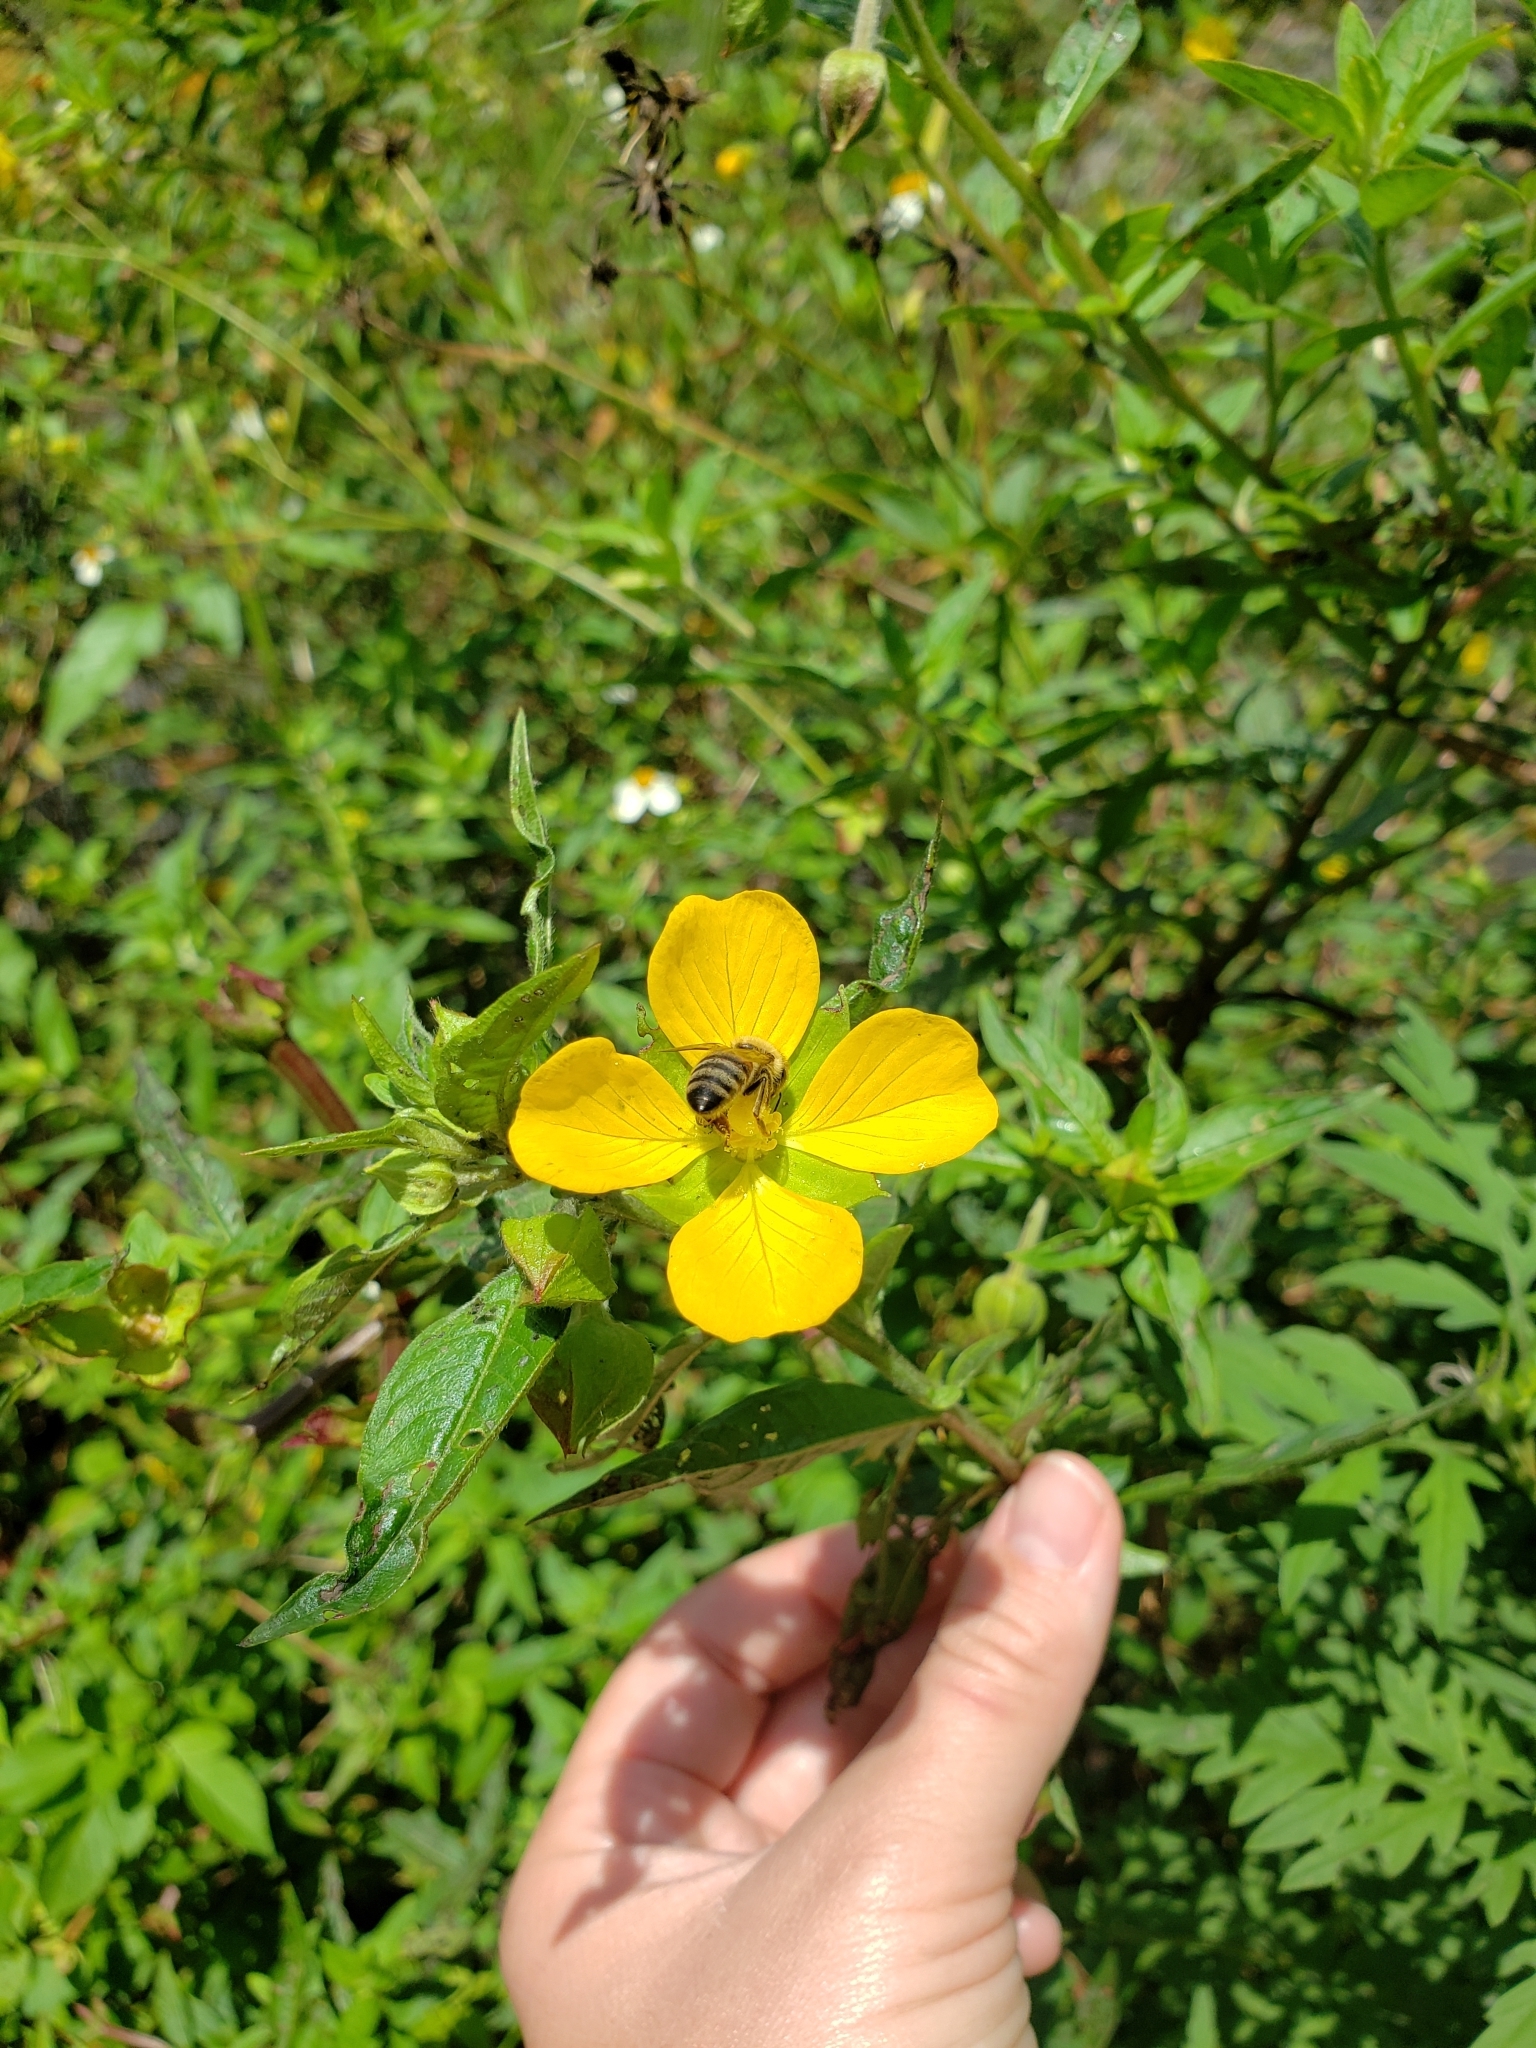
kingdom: Plantae
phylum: Tracheophyta
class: Magnoliopsida
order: Myrtales
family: Onagraceae
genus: Ludwigia
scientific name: Ludwigia octovalvis
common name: Water-primrose
